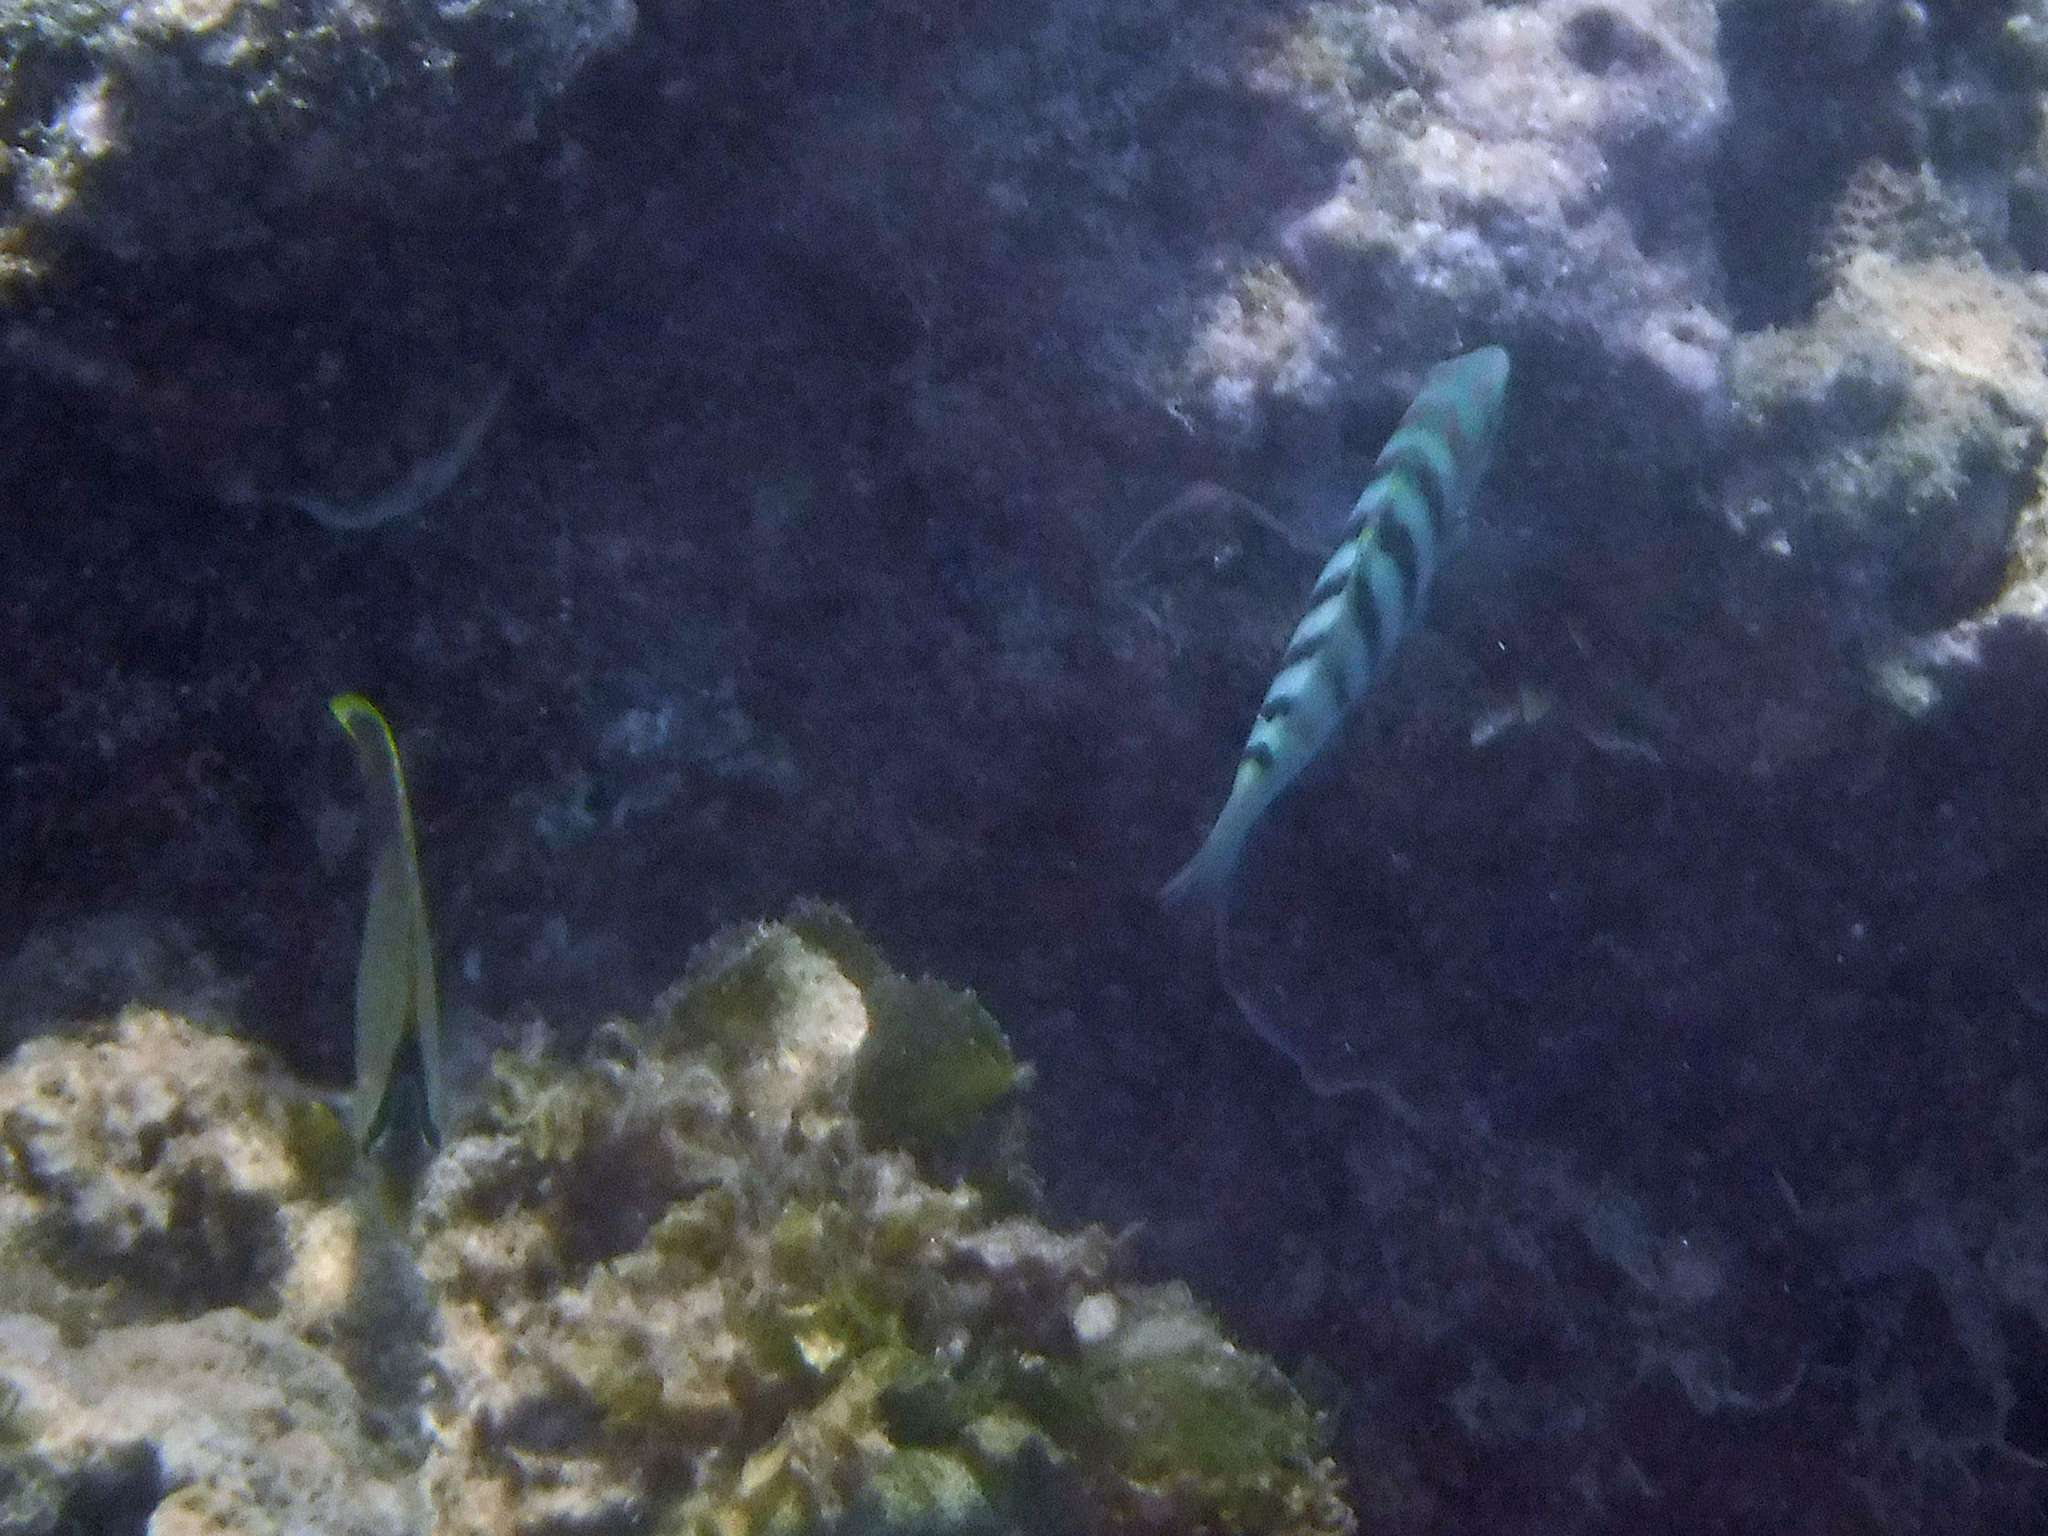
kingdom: Animalia
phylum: Chordata
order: Perciformes
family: Labridae
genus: Thalassoma
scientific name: Thalassoma hardwicke
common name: Sixbar wrasse
